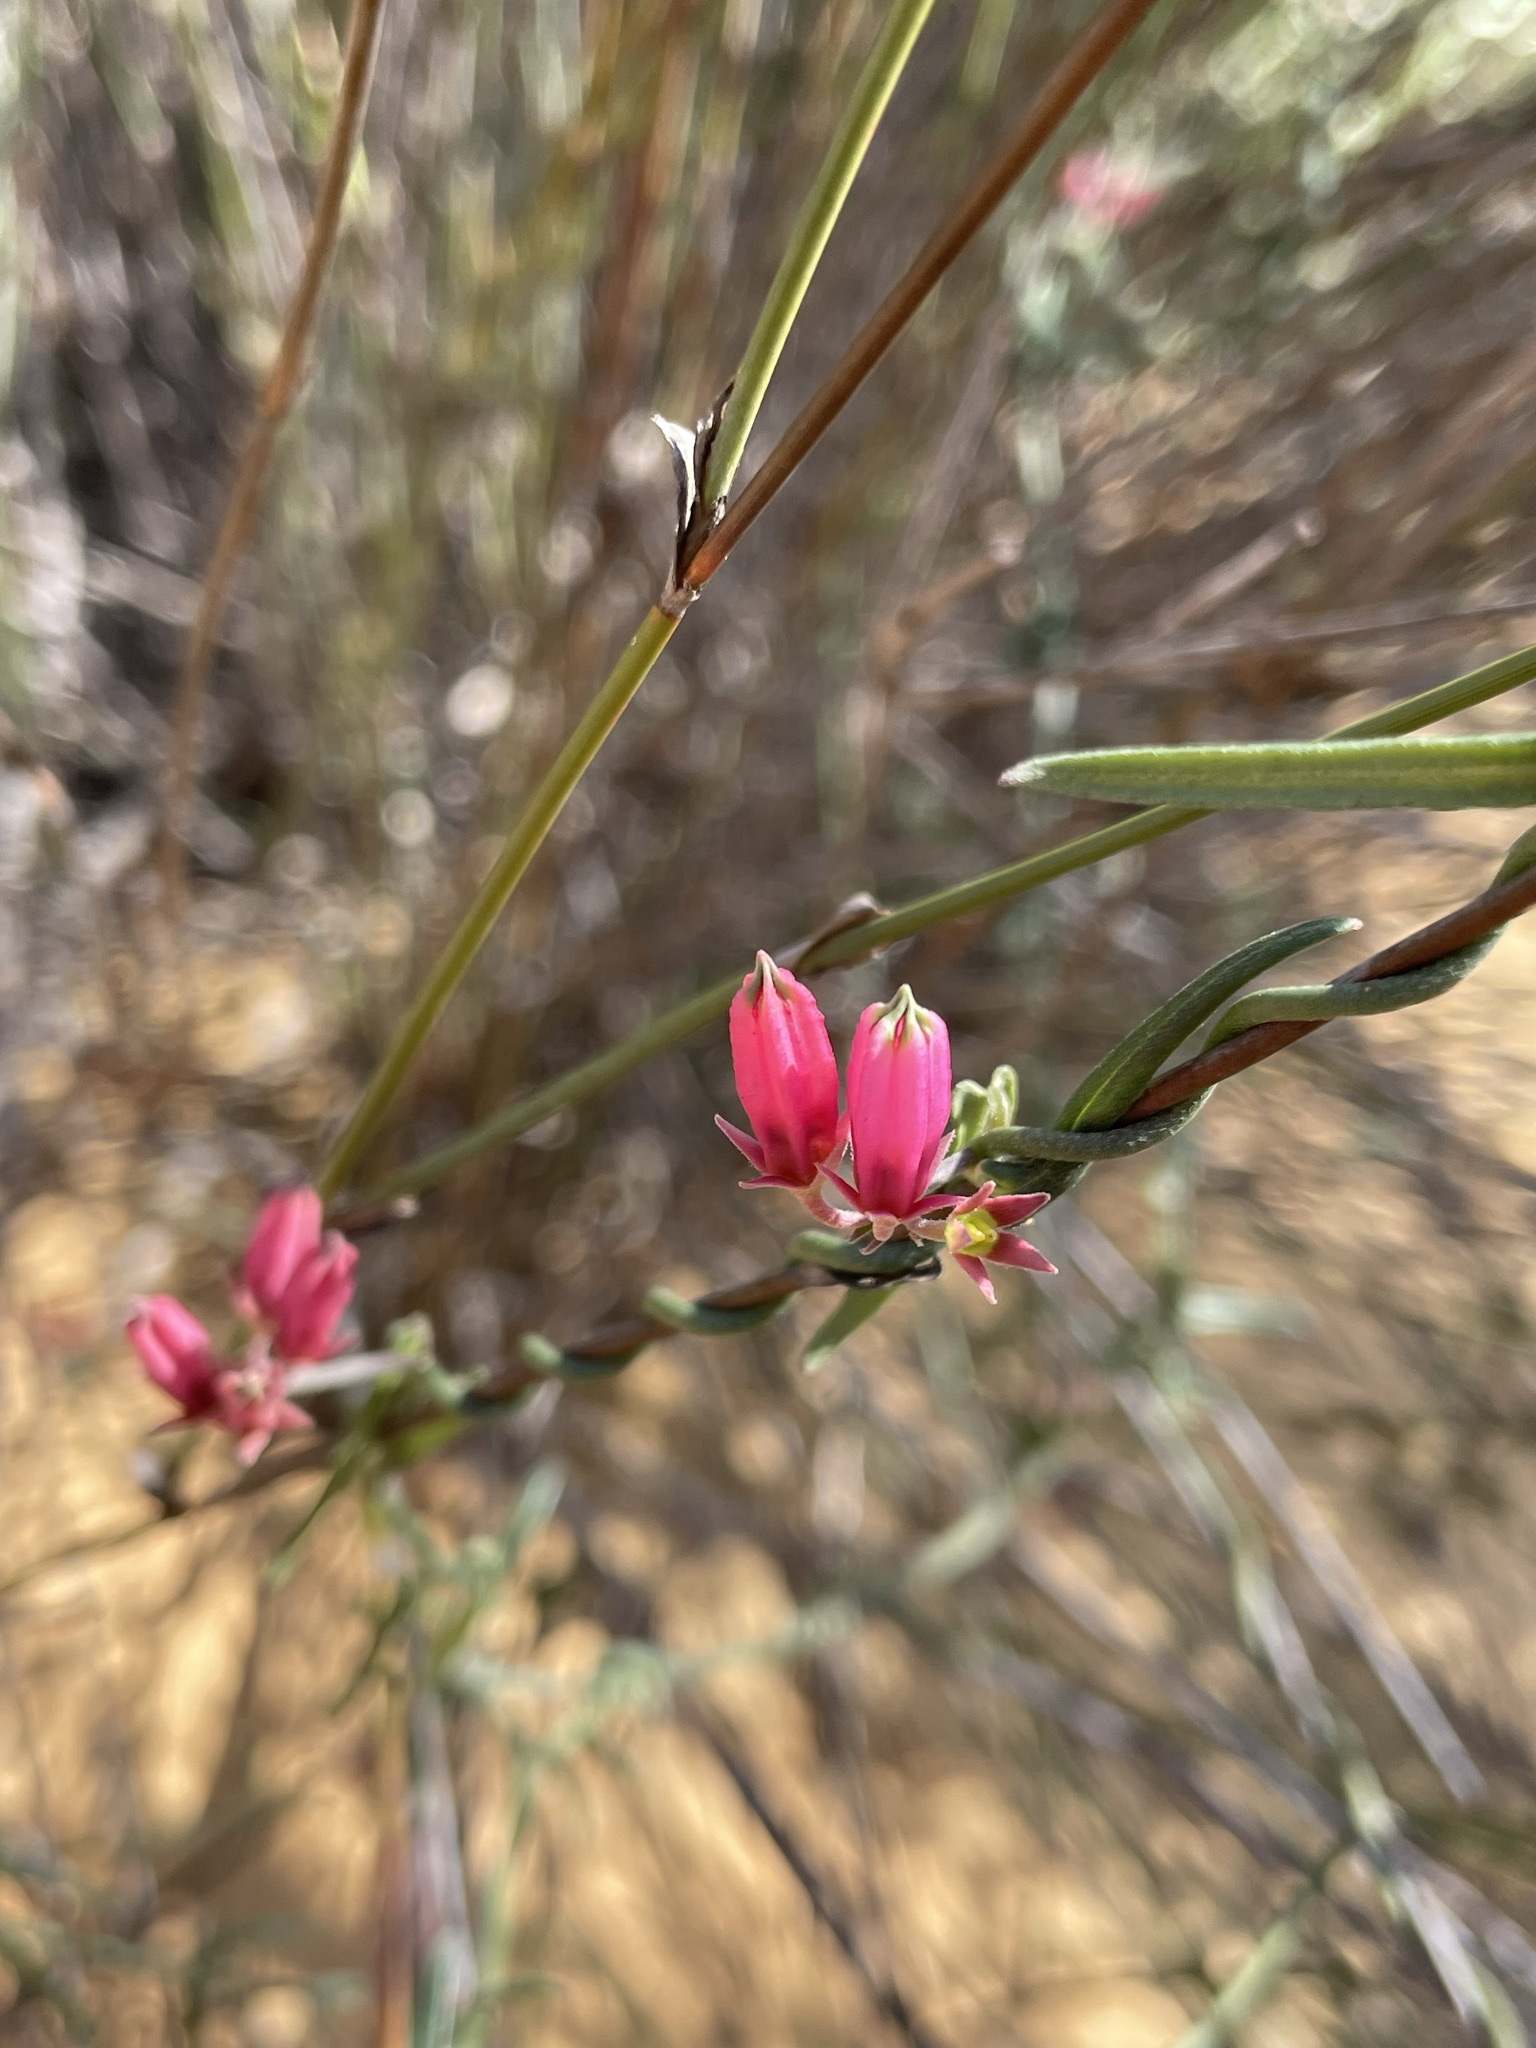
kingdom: Plantae
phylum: Tracheophyta
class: Magnoliopsida
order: Gentianales
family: Apocynaceae
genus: Microloma
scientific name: Microloma sagittatum
